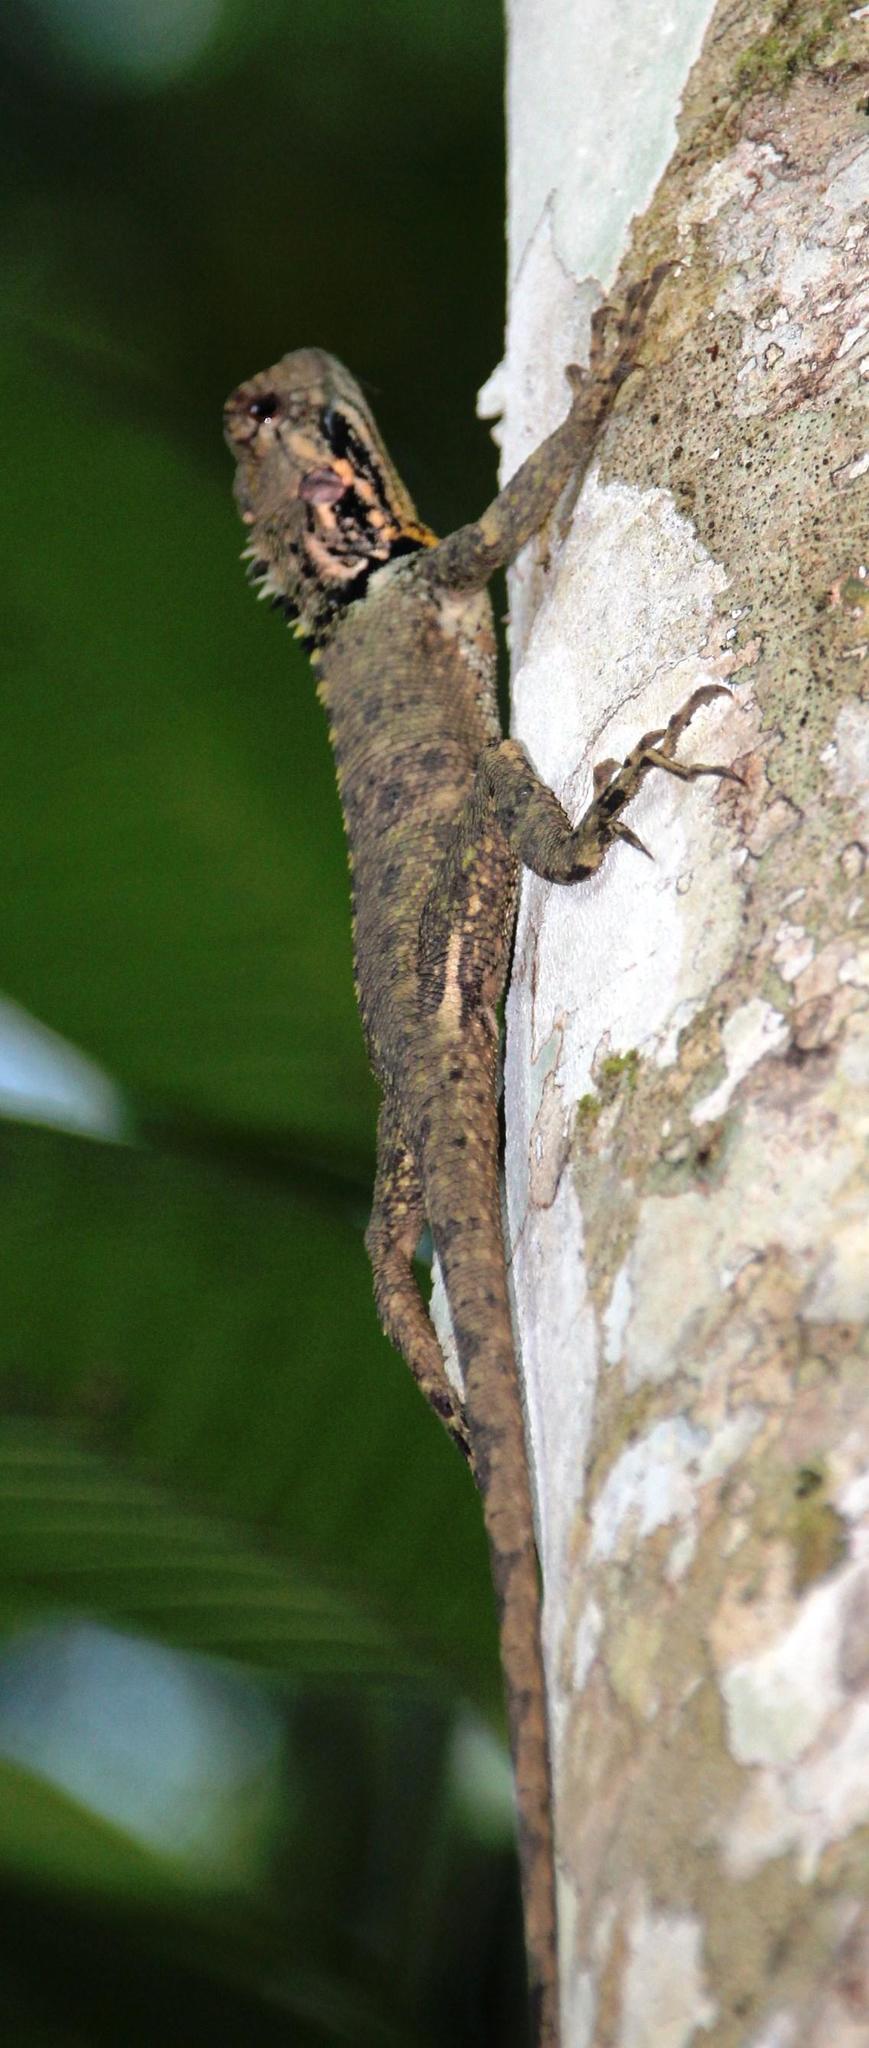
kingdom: Animalia
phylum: Chordata
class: Squamata
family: Tropiduridae
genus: Plica
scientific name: Plica umbra
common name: Harlequin racerunner
